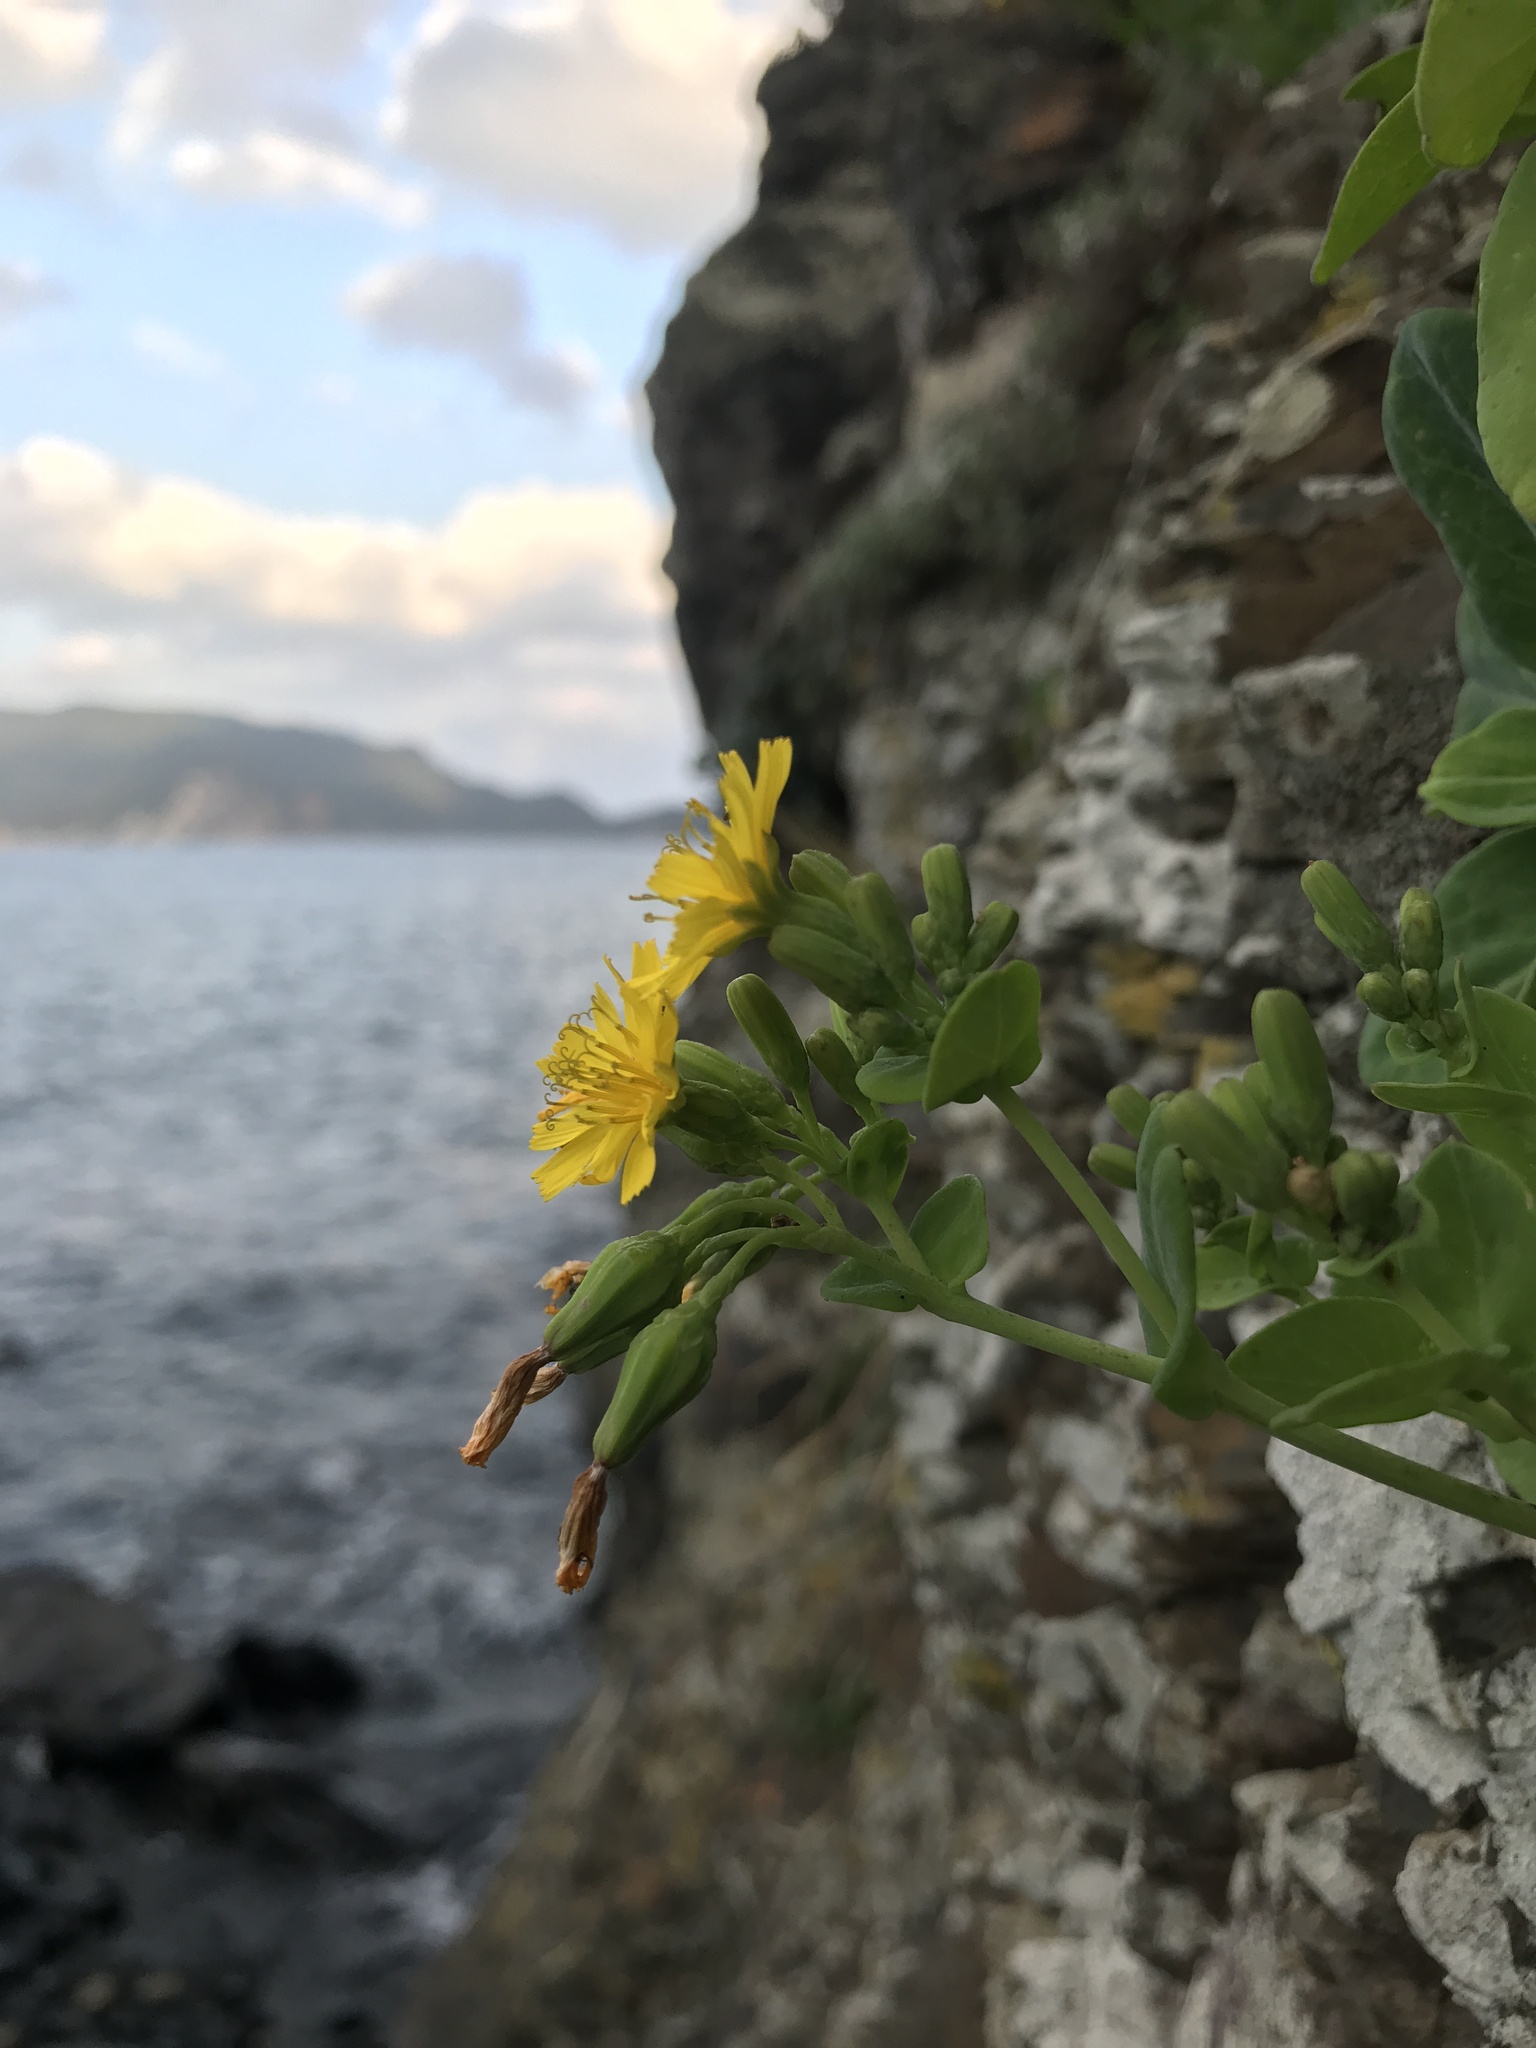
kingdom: Plantae
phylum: Tracheophyta
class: Magnoliopsida
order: Asterales
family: Asteraceae
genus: Crepidiastrum
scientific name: Crepidiastrum lanceolatum
